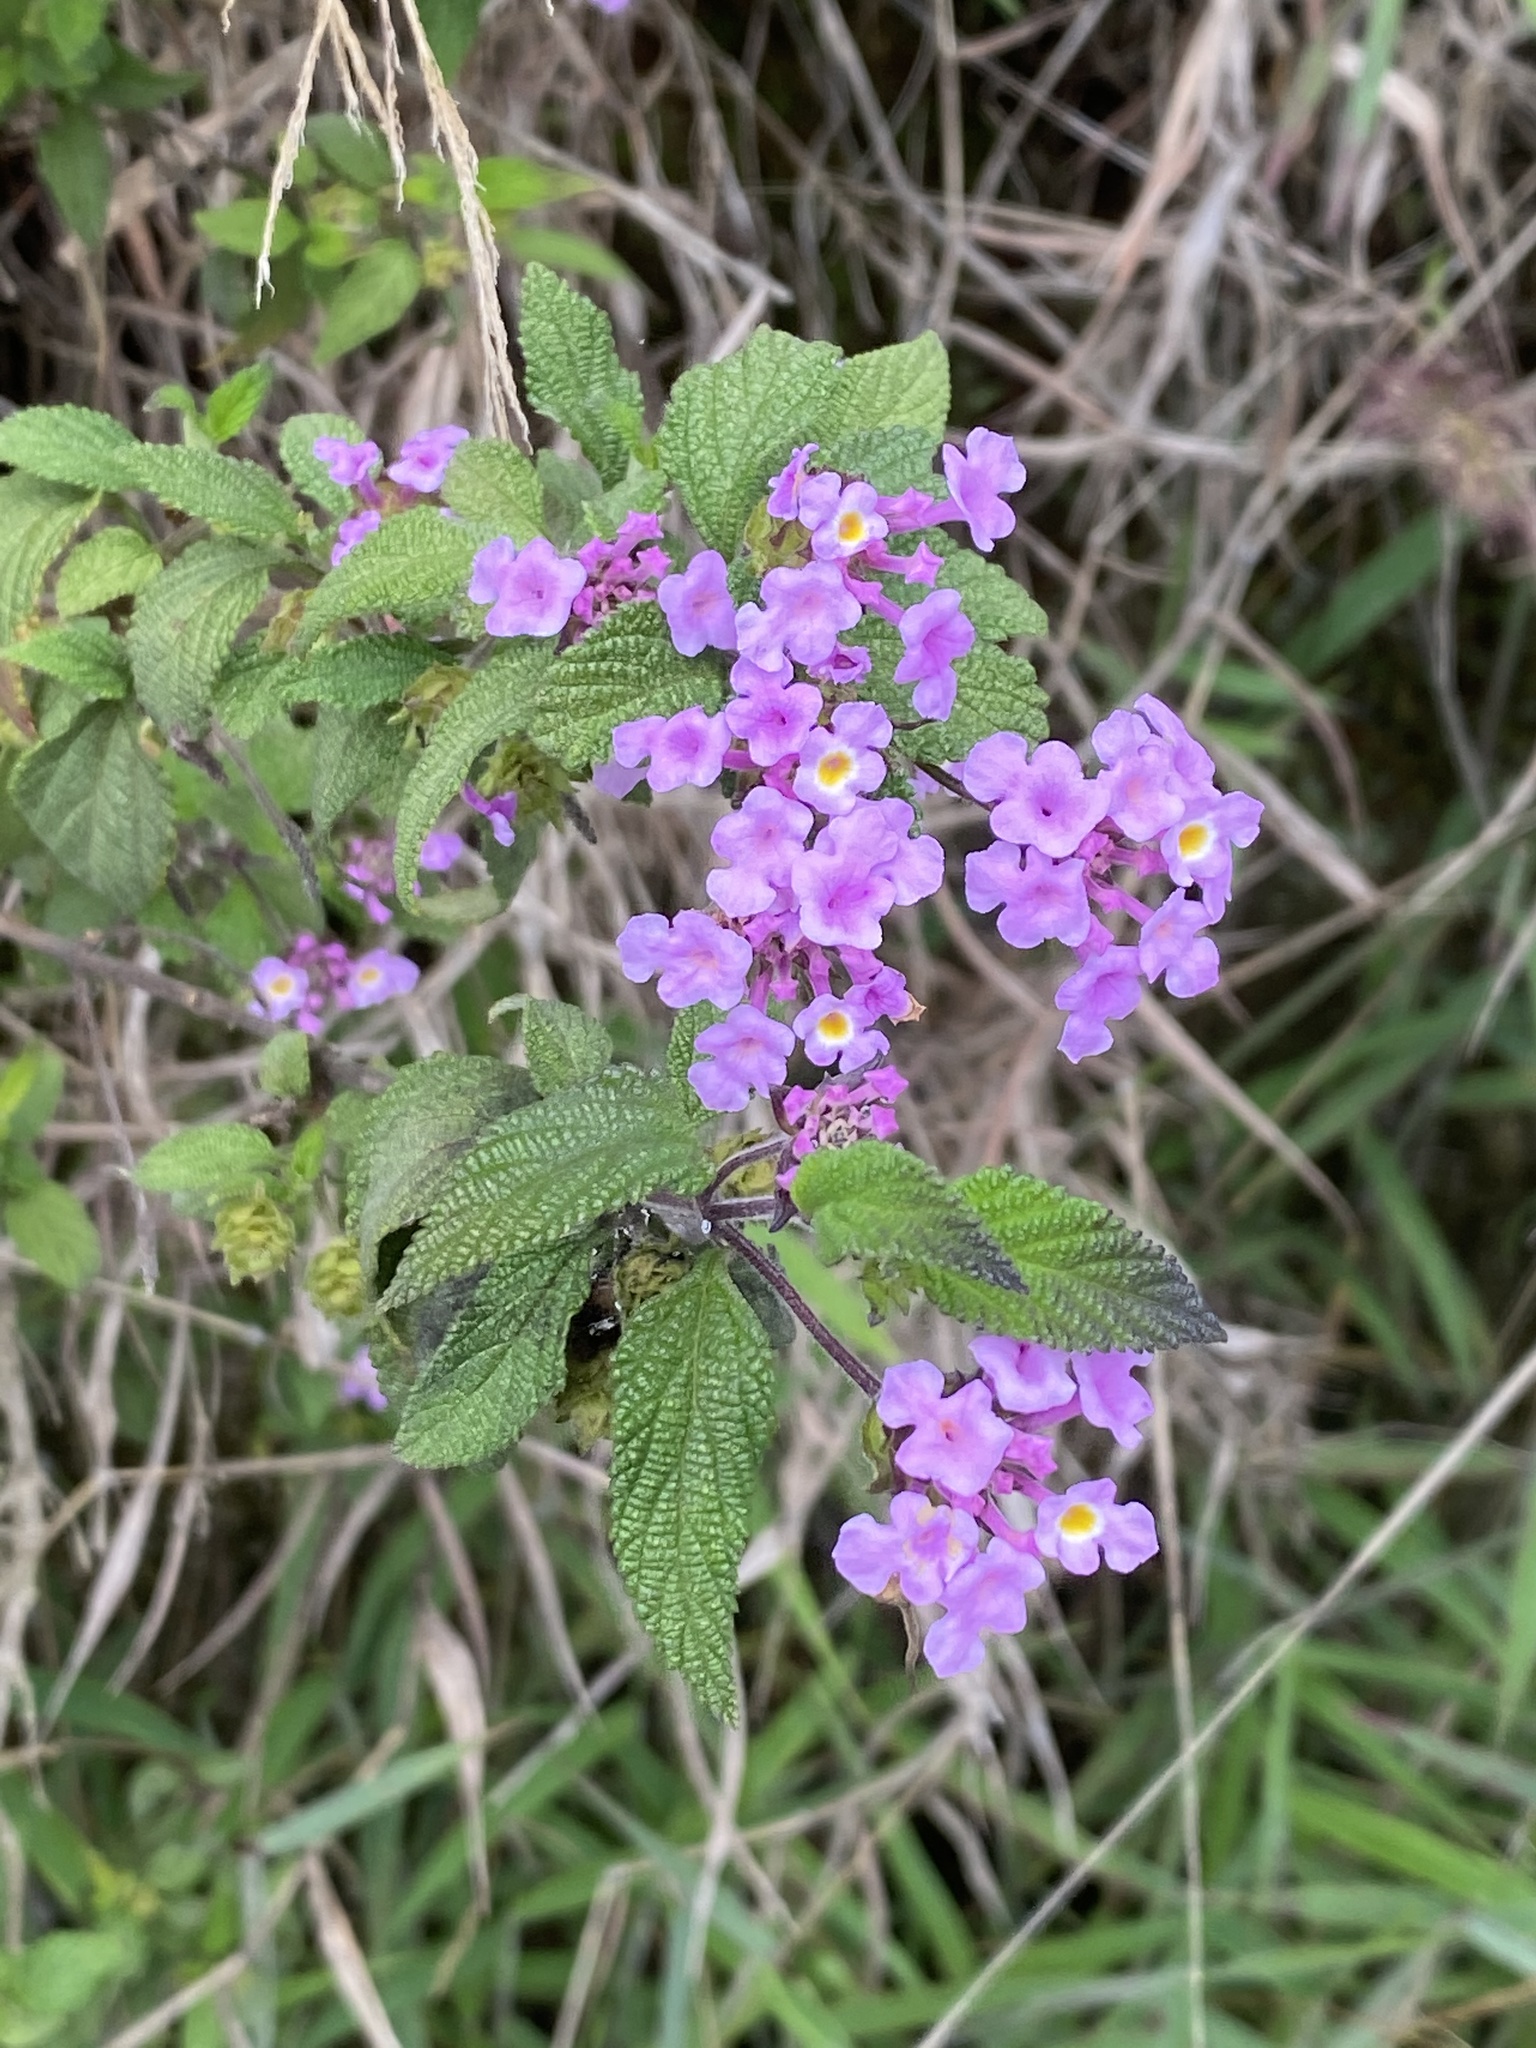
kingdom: Plantae
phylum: Tracheophyta
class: Magnoliopsida
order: Lamiales
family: Verbenaceae
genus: Lantana
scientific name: Lantana montevidensis
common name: Trailing shrubverbena
